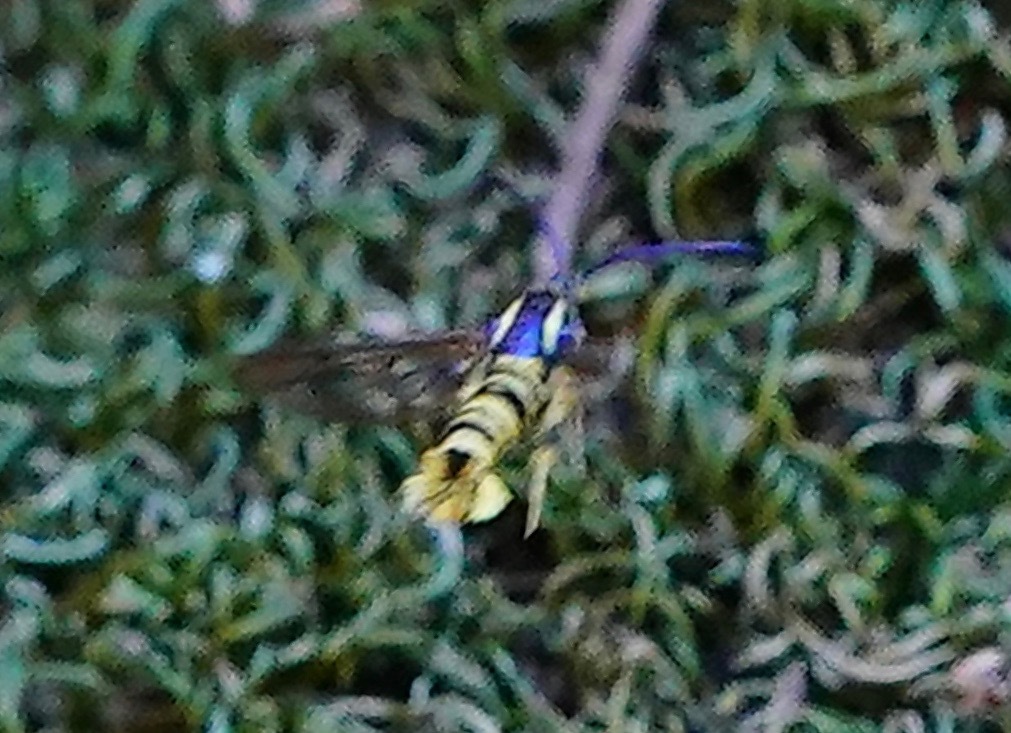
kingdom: Animalia
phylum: Arthropoda
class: Insecta
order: Lepidoptera
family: Sesiidae
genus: Synanthedon
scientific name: Synanthedon resplendens
